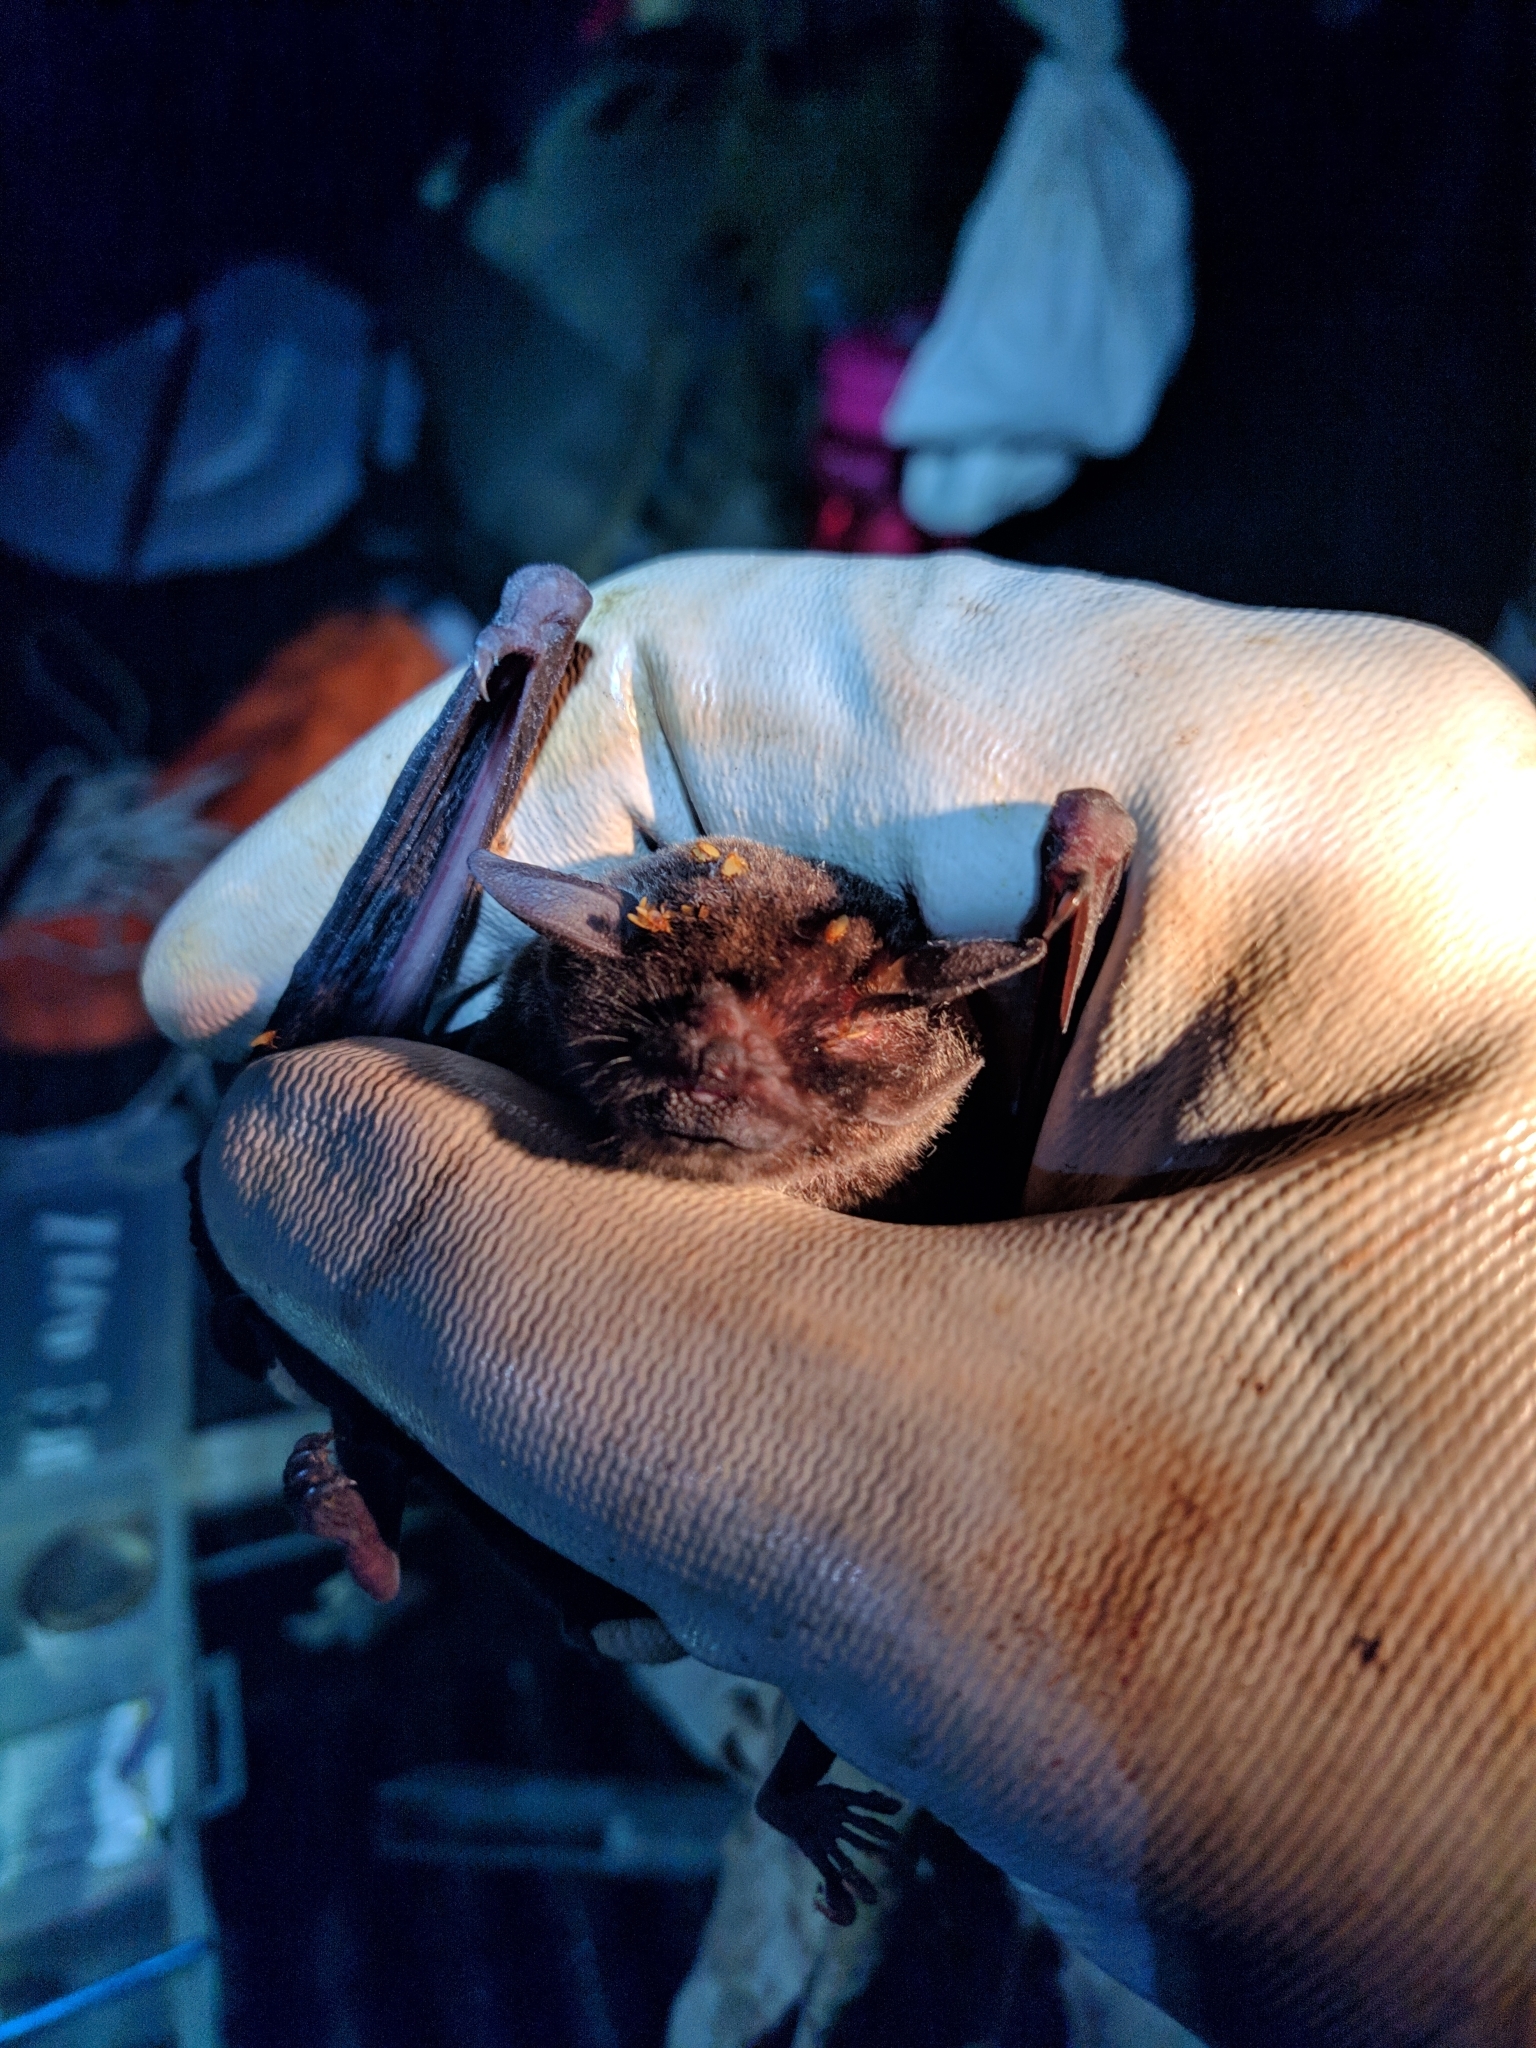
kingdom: Animalia
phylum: Chordata
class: Mammalia
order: Chiroptera
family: Mormoopidae
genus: Pteronotus
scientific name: Pteronotus parnellii
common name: Common mustached bat
